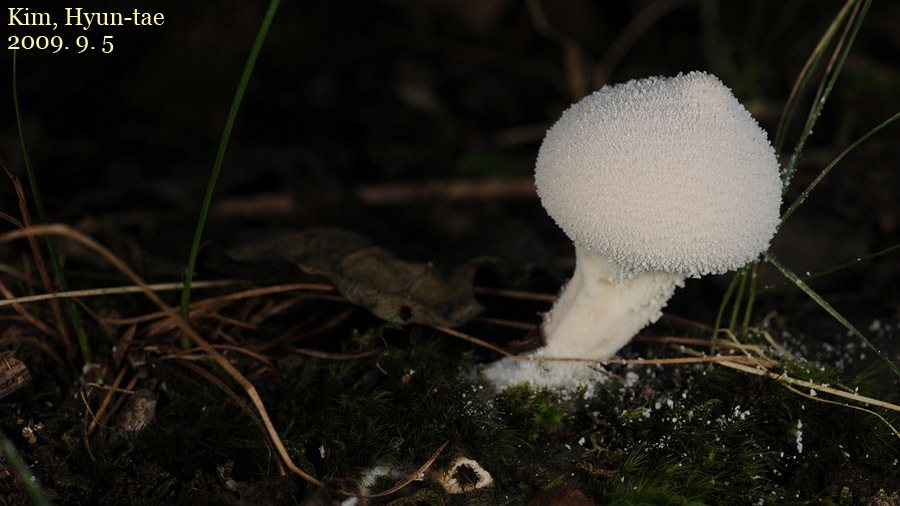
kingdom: Fungi
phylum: Basidiomycota
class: Agaricomycetes
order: Agaricales
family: Lycoperdaceae
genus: Lycoperdon
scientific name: Lycoperdon perlatum
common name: Common puffball
